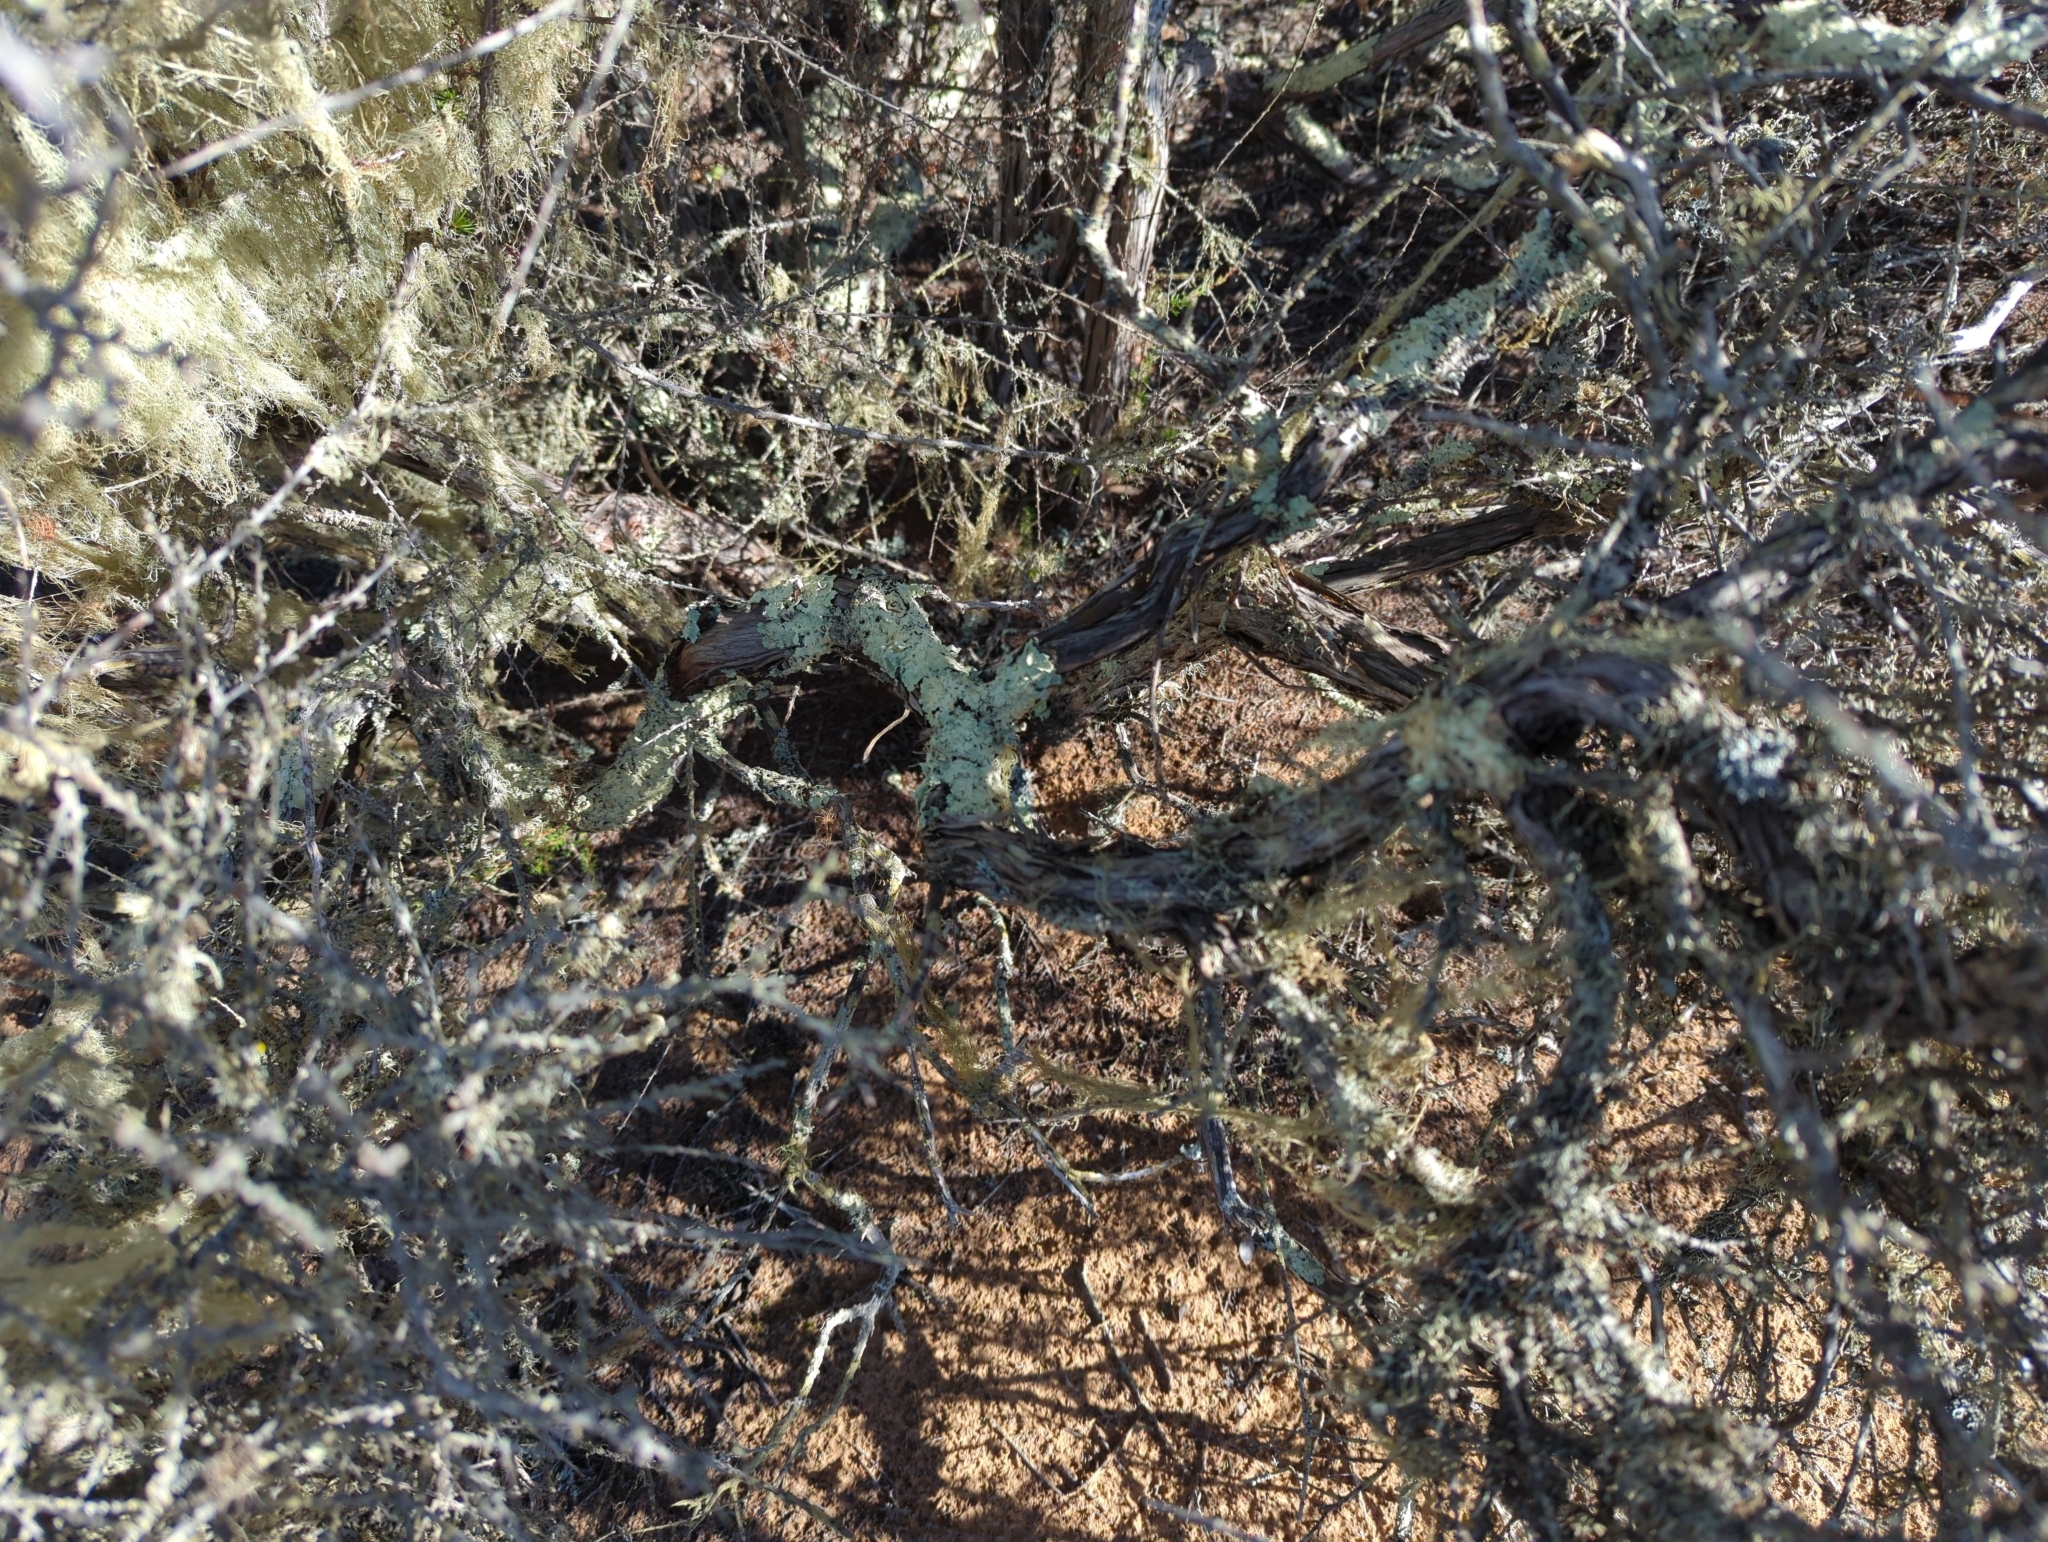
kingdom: Plantae
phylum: Tracheophyta
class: Magnoliopsida
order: Rosales
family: Rosaceae
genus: Adenostoma
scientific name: Adenostoma fasciculatum
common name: Chamise
